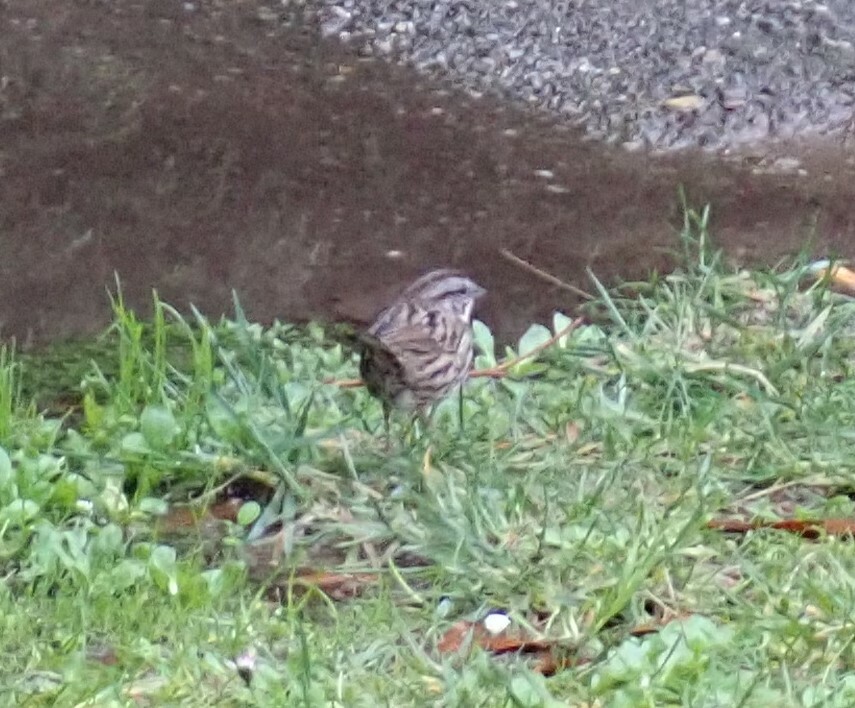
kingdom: Animalia
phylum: Chordata
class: Aves
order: Passeriformes
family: Passerellidae
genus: Melospiza
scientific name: Melospiza melodia
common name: Song sparrow
